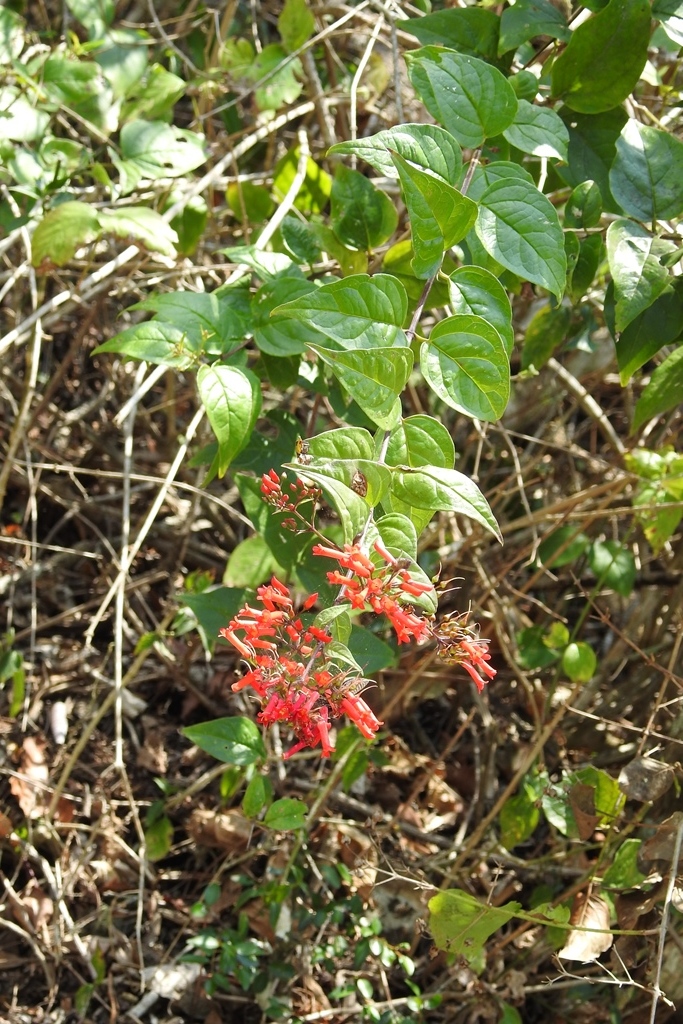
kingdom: Plantae
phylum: Tracheophyta
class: Magnoliopsida
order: Lamiales
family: Plantaginaceae
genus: Russelia
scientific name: Russelia contrerasii
